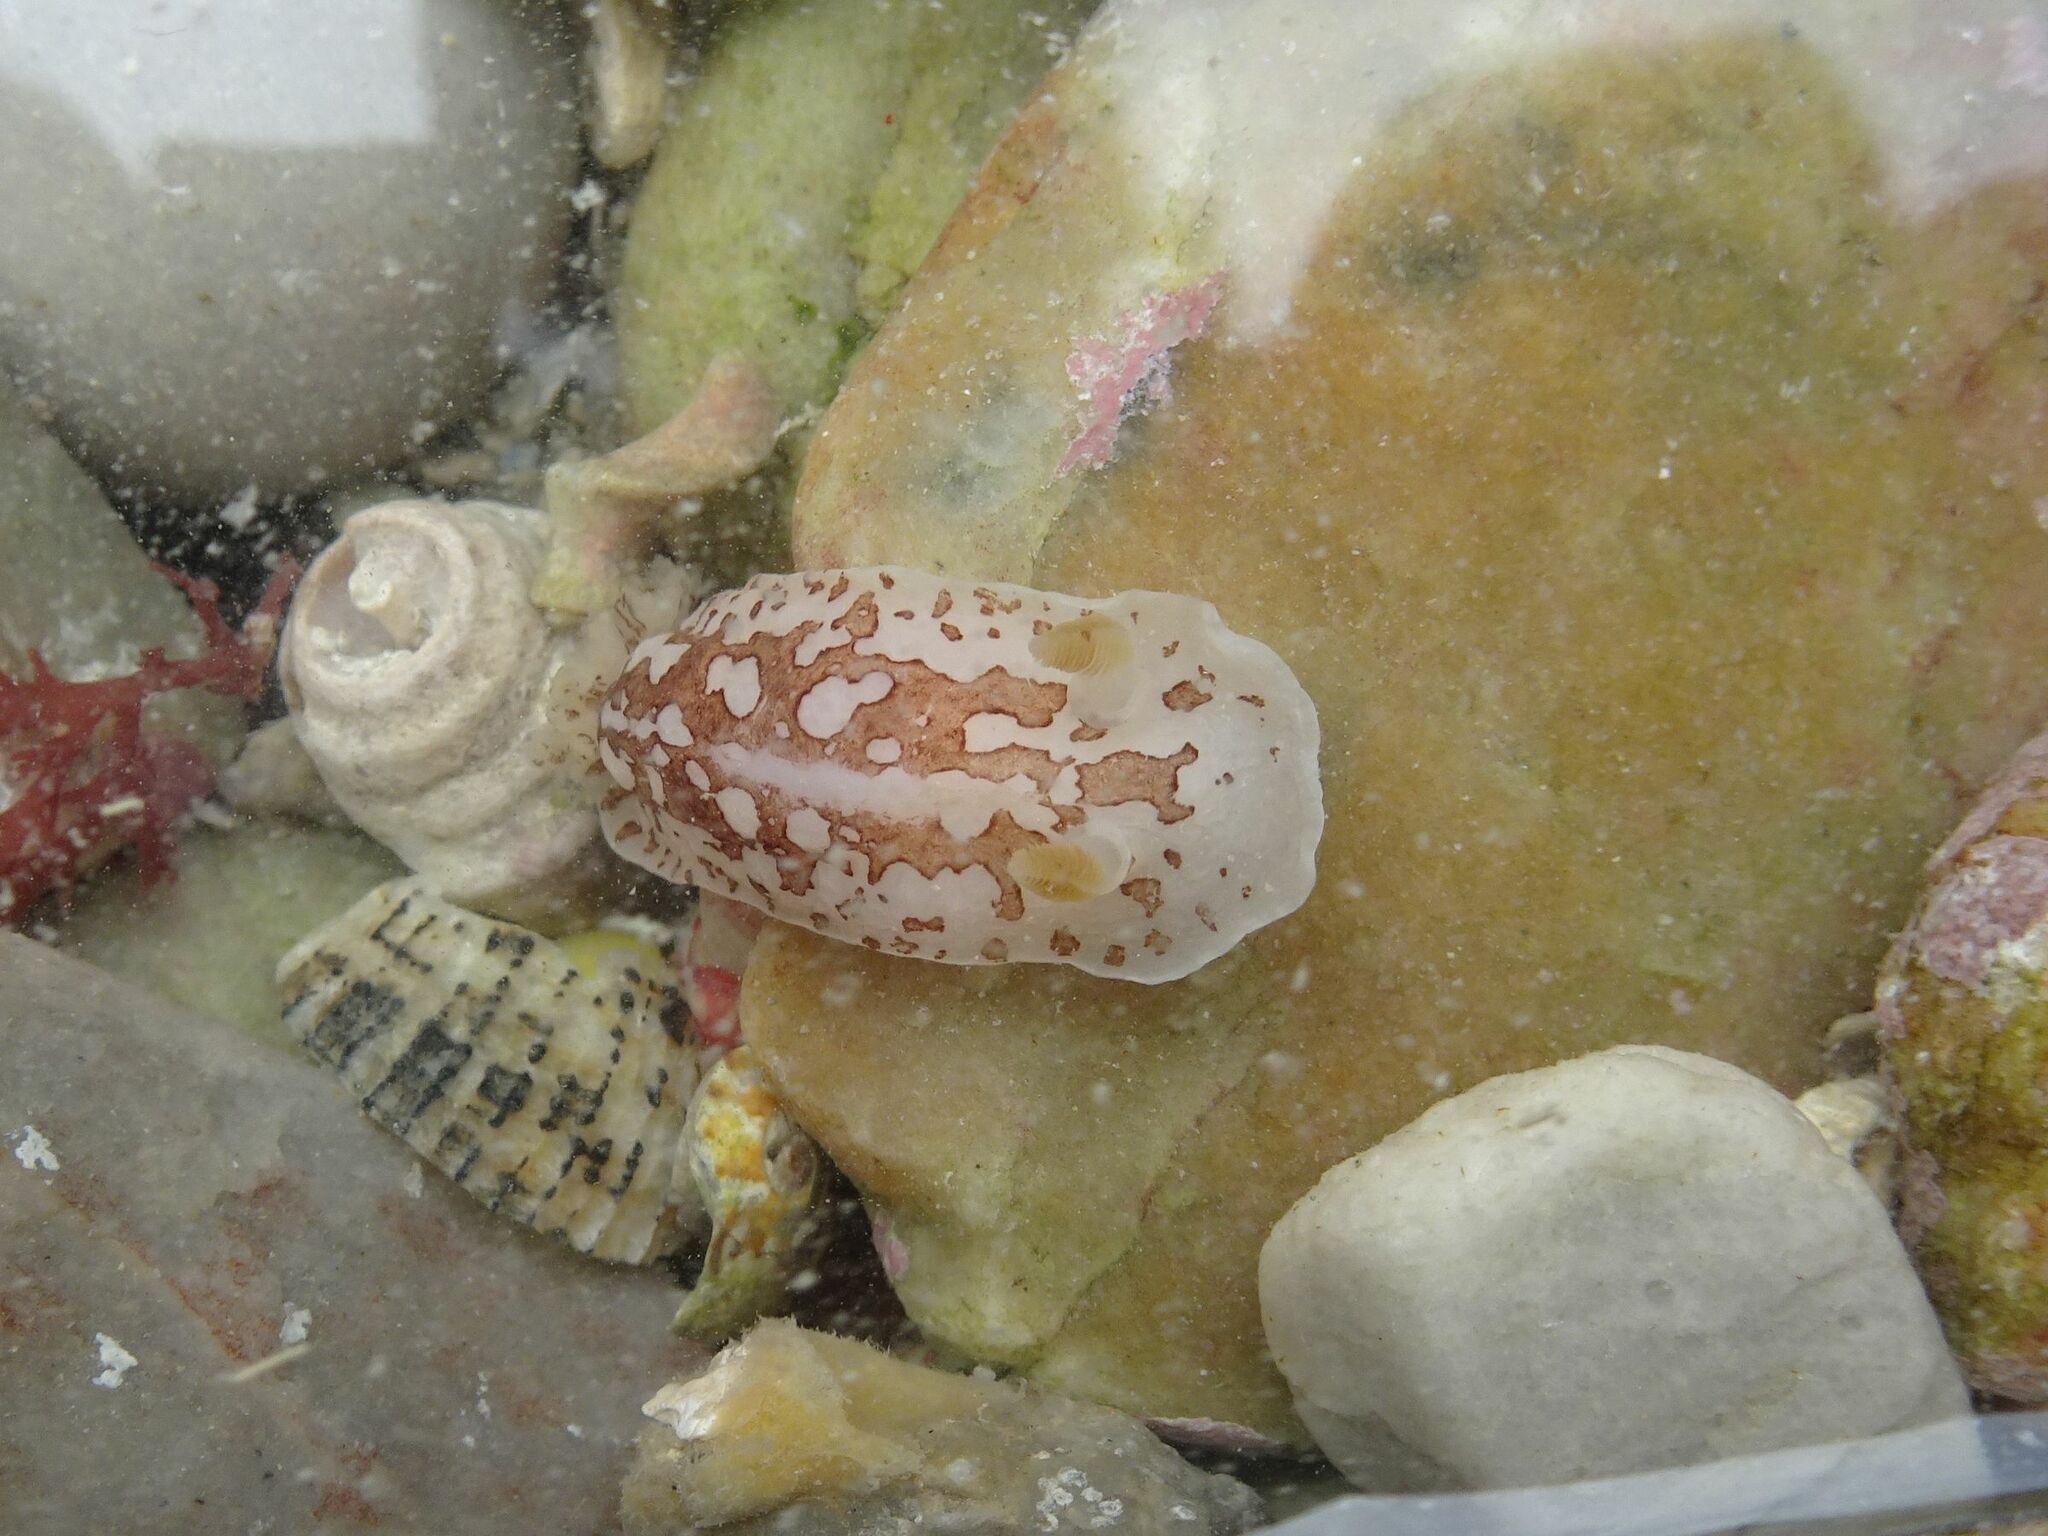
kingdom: Animalia
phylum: Mollusca
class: Gastropoda
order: Nudibranchia
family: Dorididae
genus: Aphelodoris
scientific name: Aphelodoris brunnea
